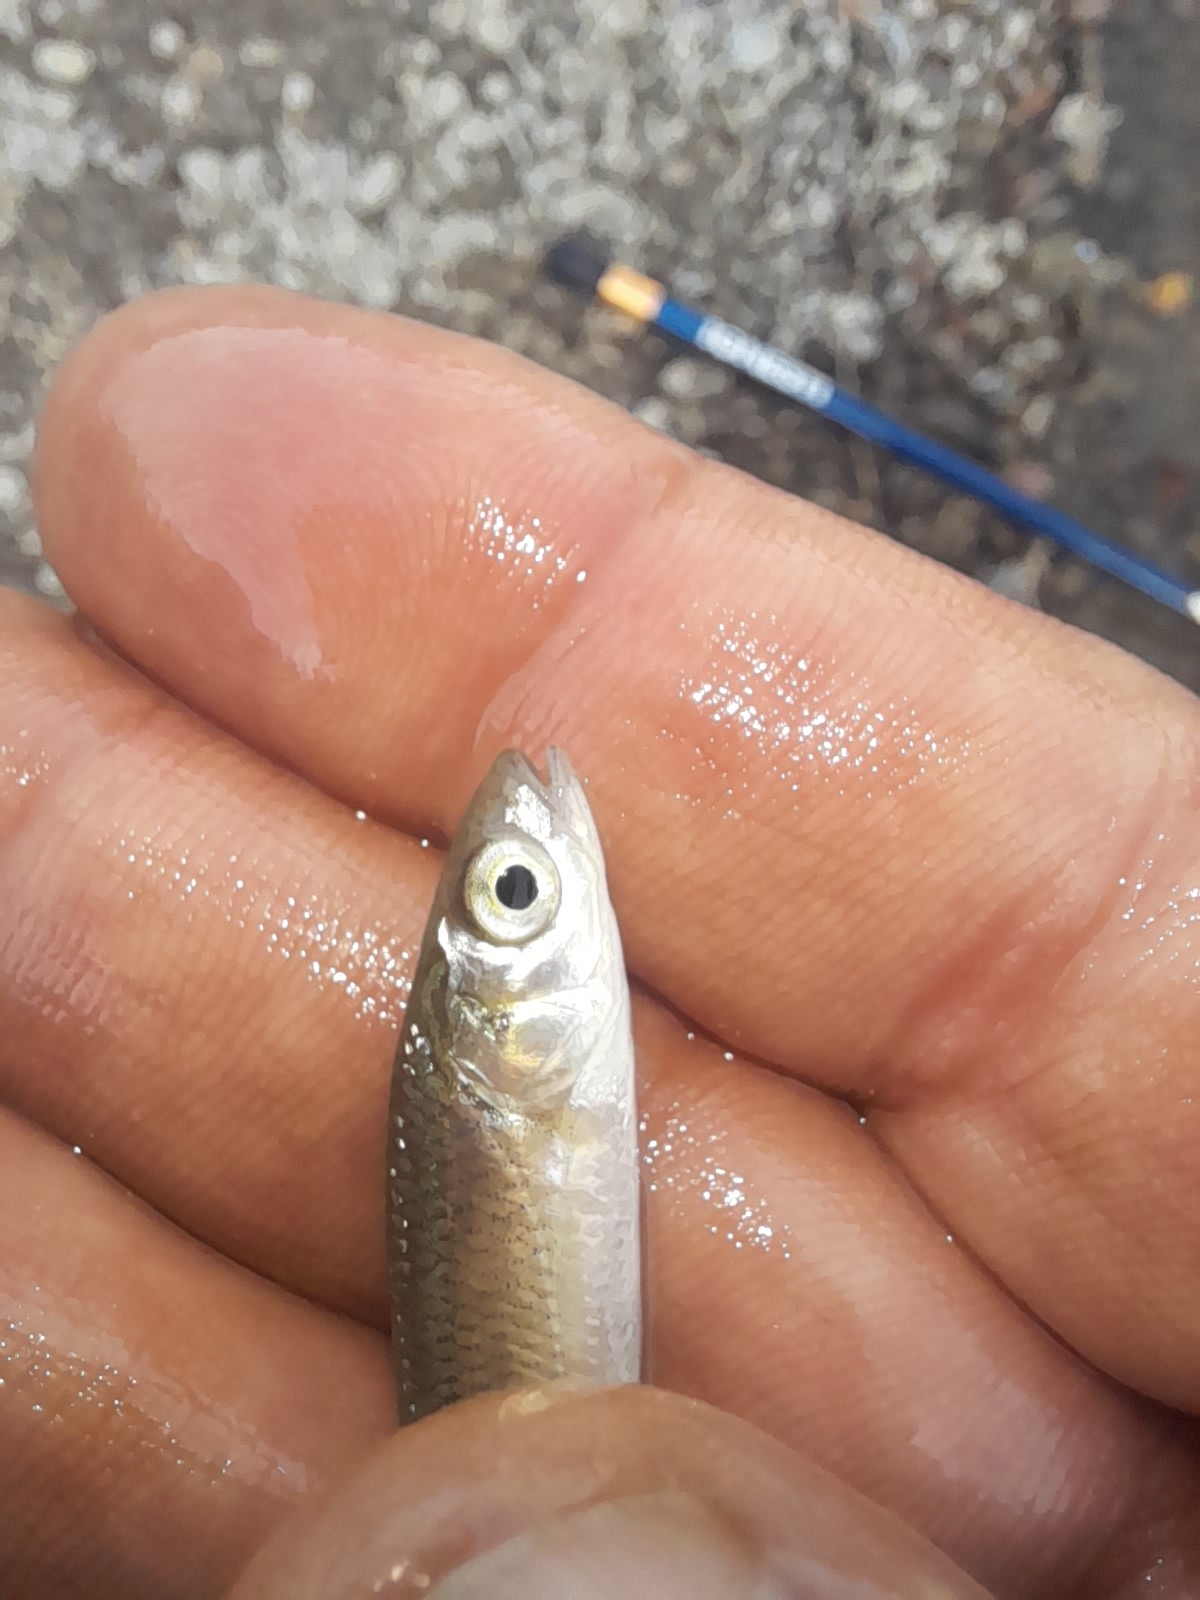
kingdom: Animalia
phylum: Chordata
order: Cypriniformes
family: Cyprinidae
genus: Alburnus
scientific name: Alburnus arborella
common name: Alborella
